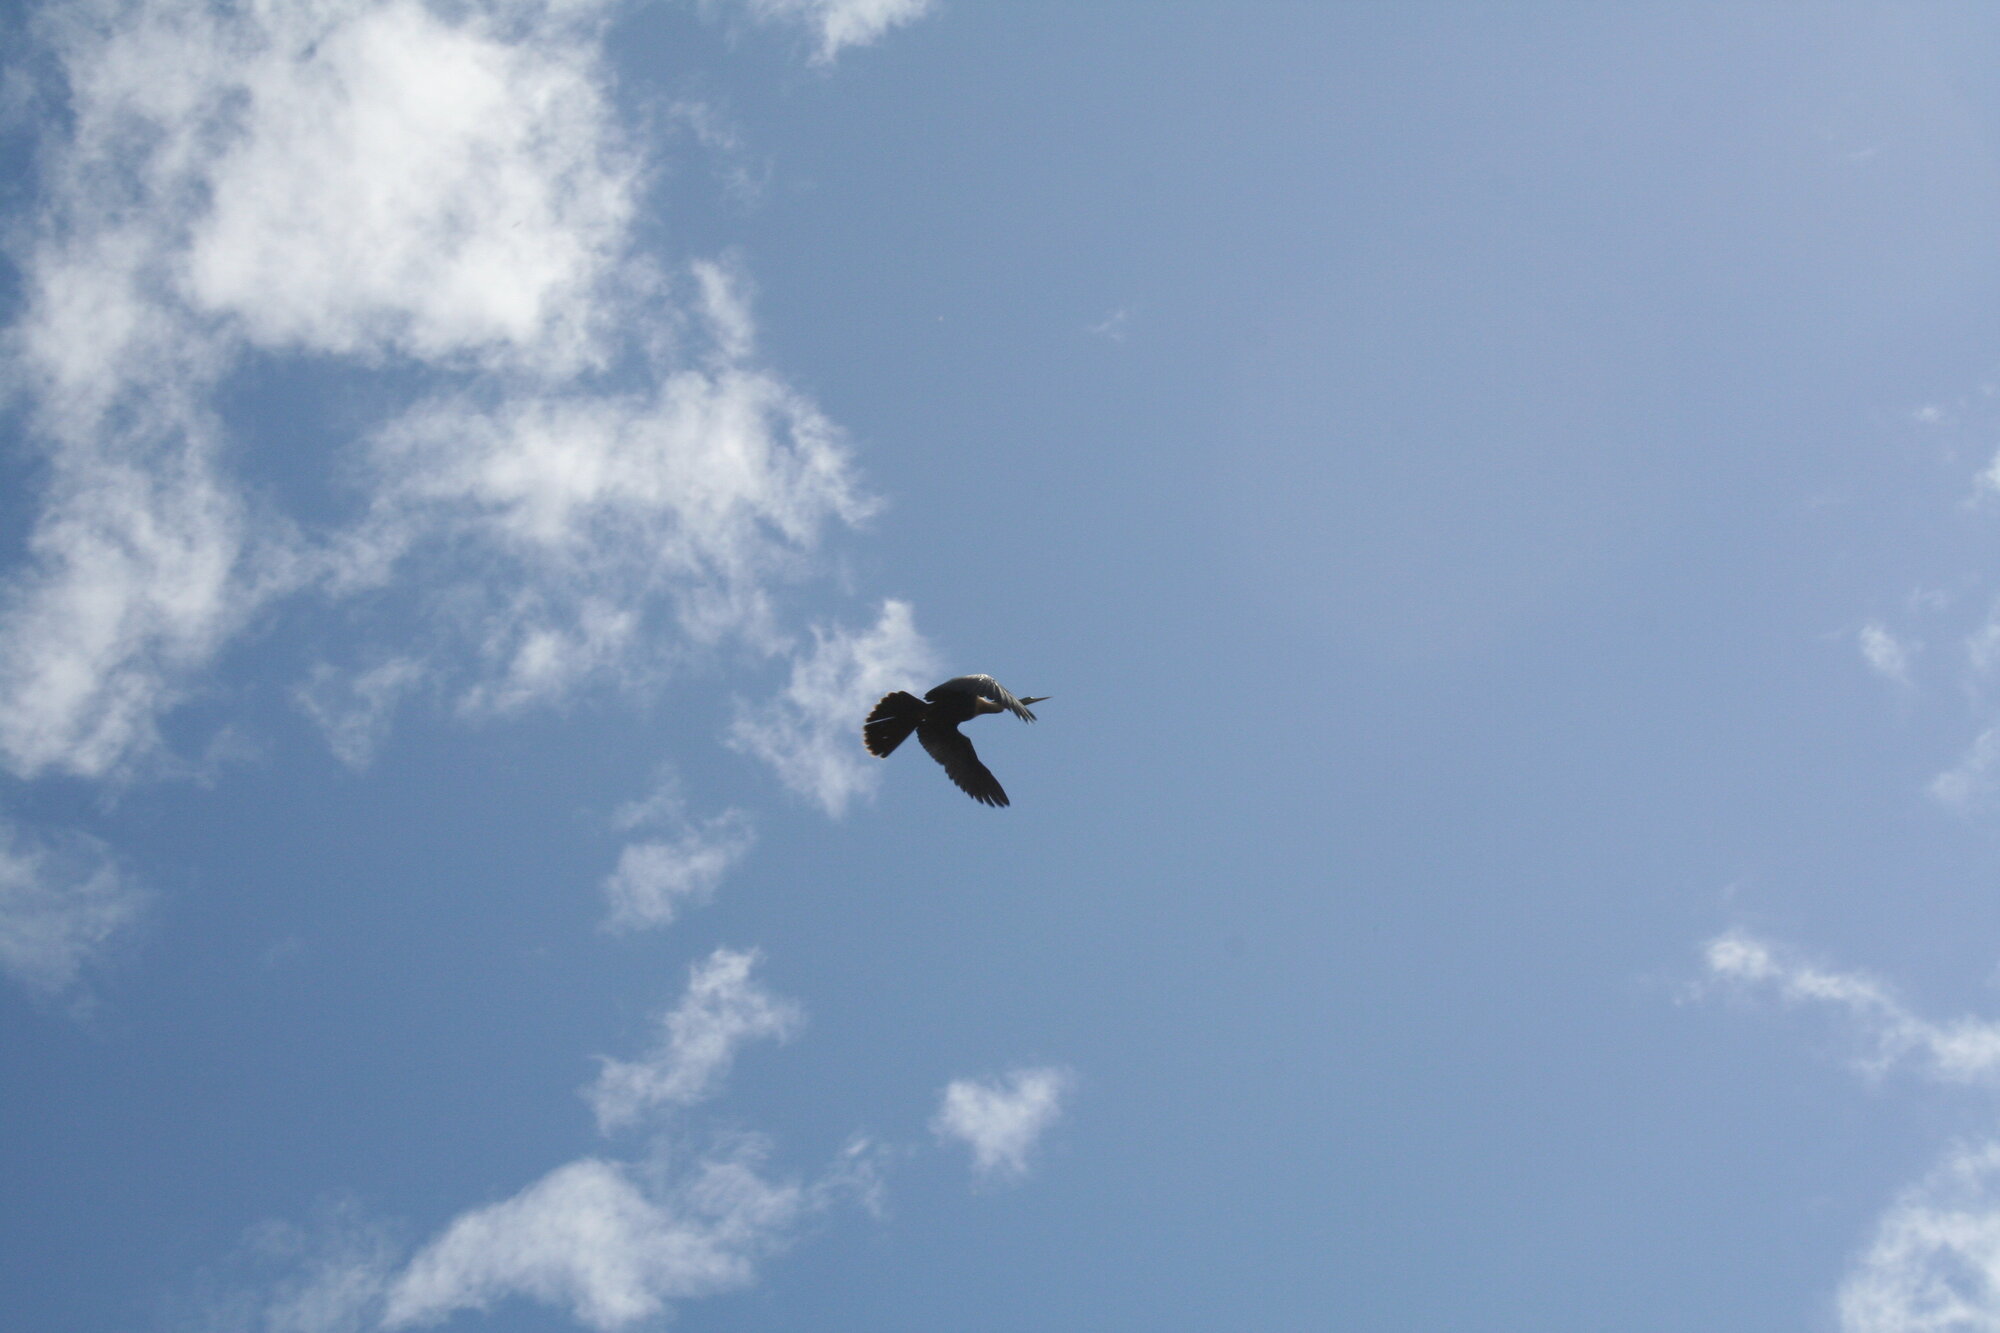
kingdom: Animalia
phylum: Chordata
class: Aves
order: Suliformes
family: Anhingidae
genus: Anhinga
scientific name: Anhinga anhinga
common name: Anhinga
